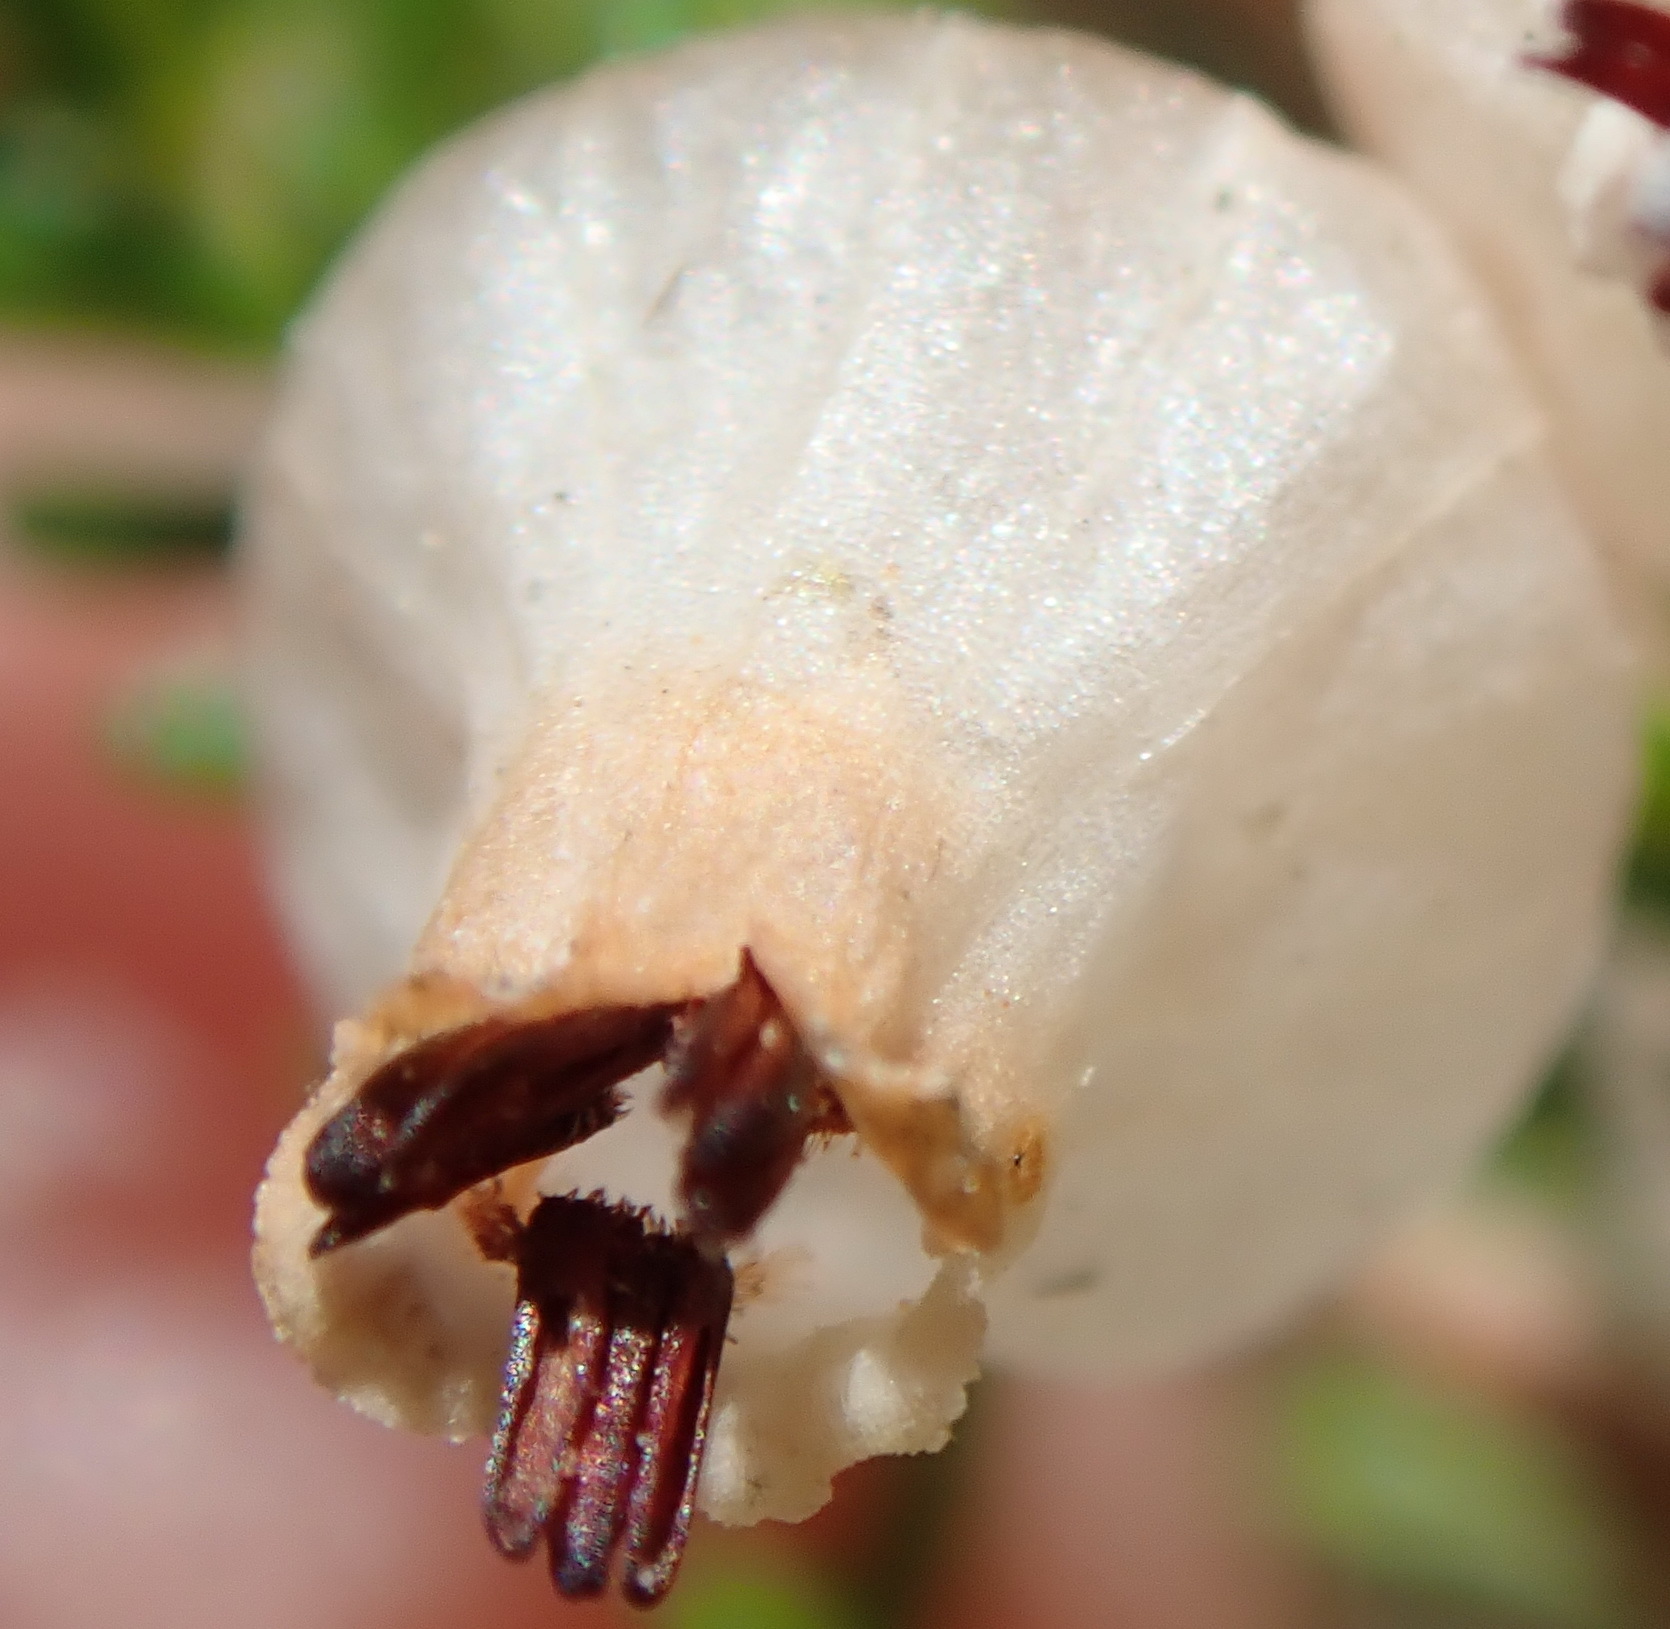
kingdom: Plantae
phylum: Tracheophyta
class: Magnoliopsida
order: Ericales
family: Ericaceae
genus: Erica
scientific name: Erica glomiflora
